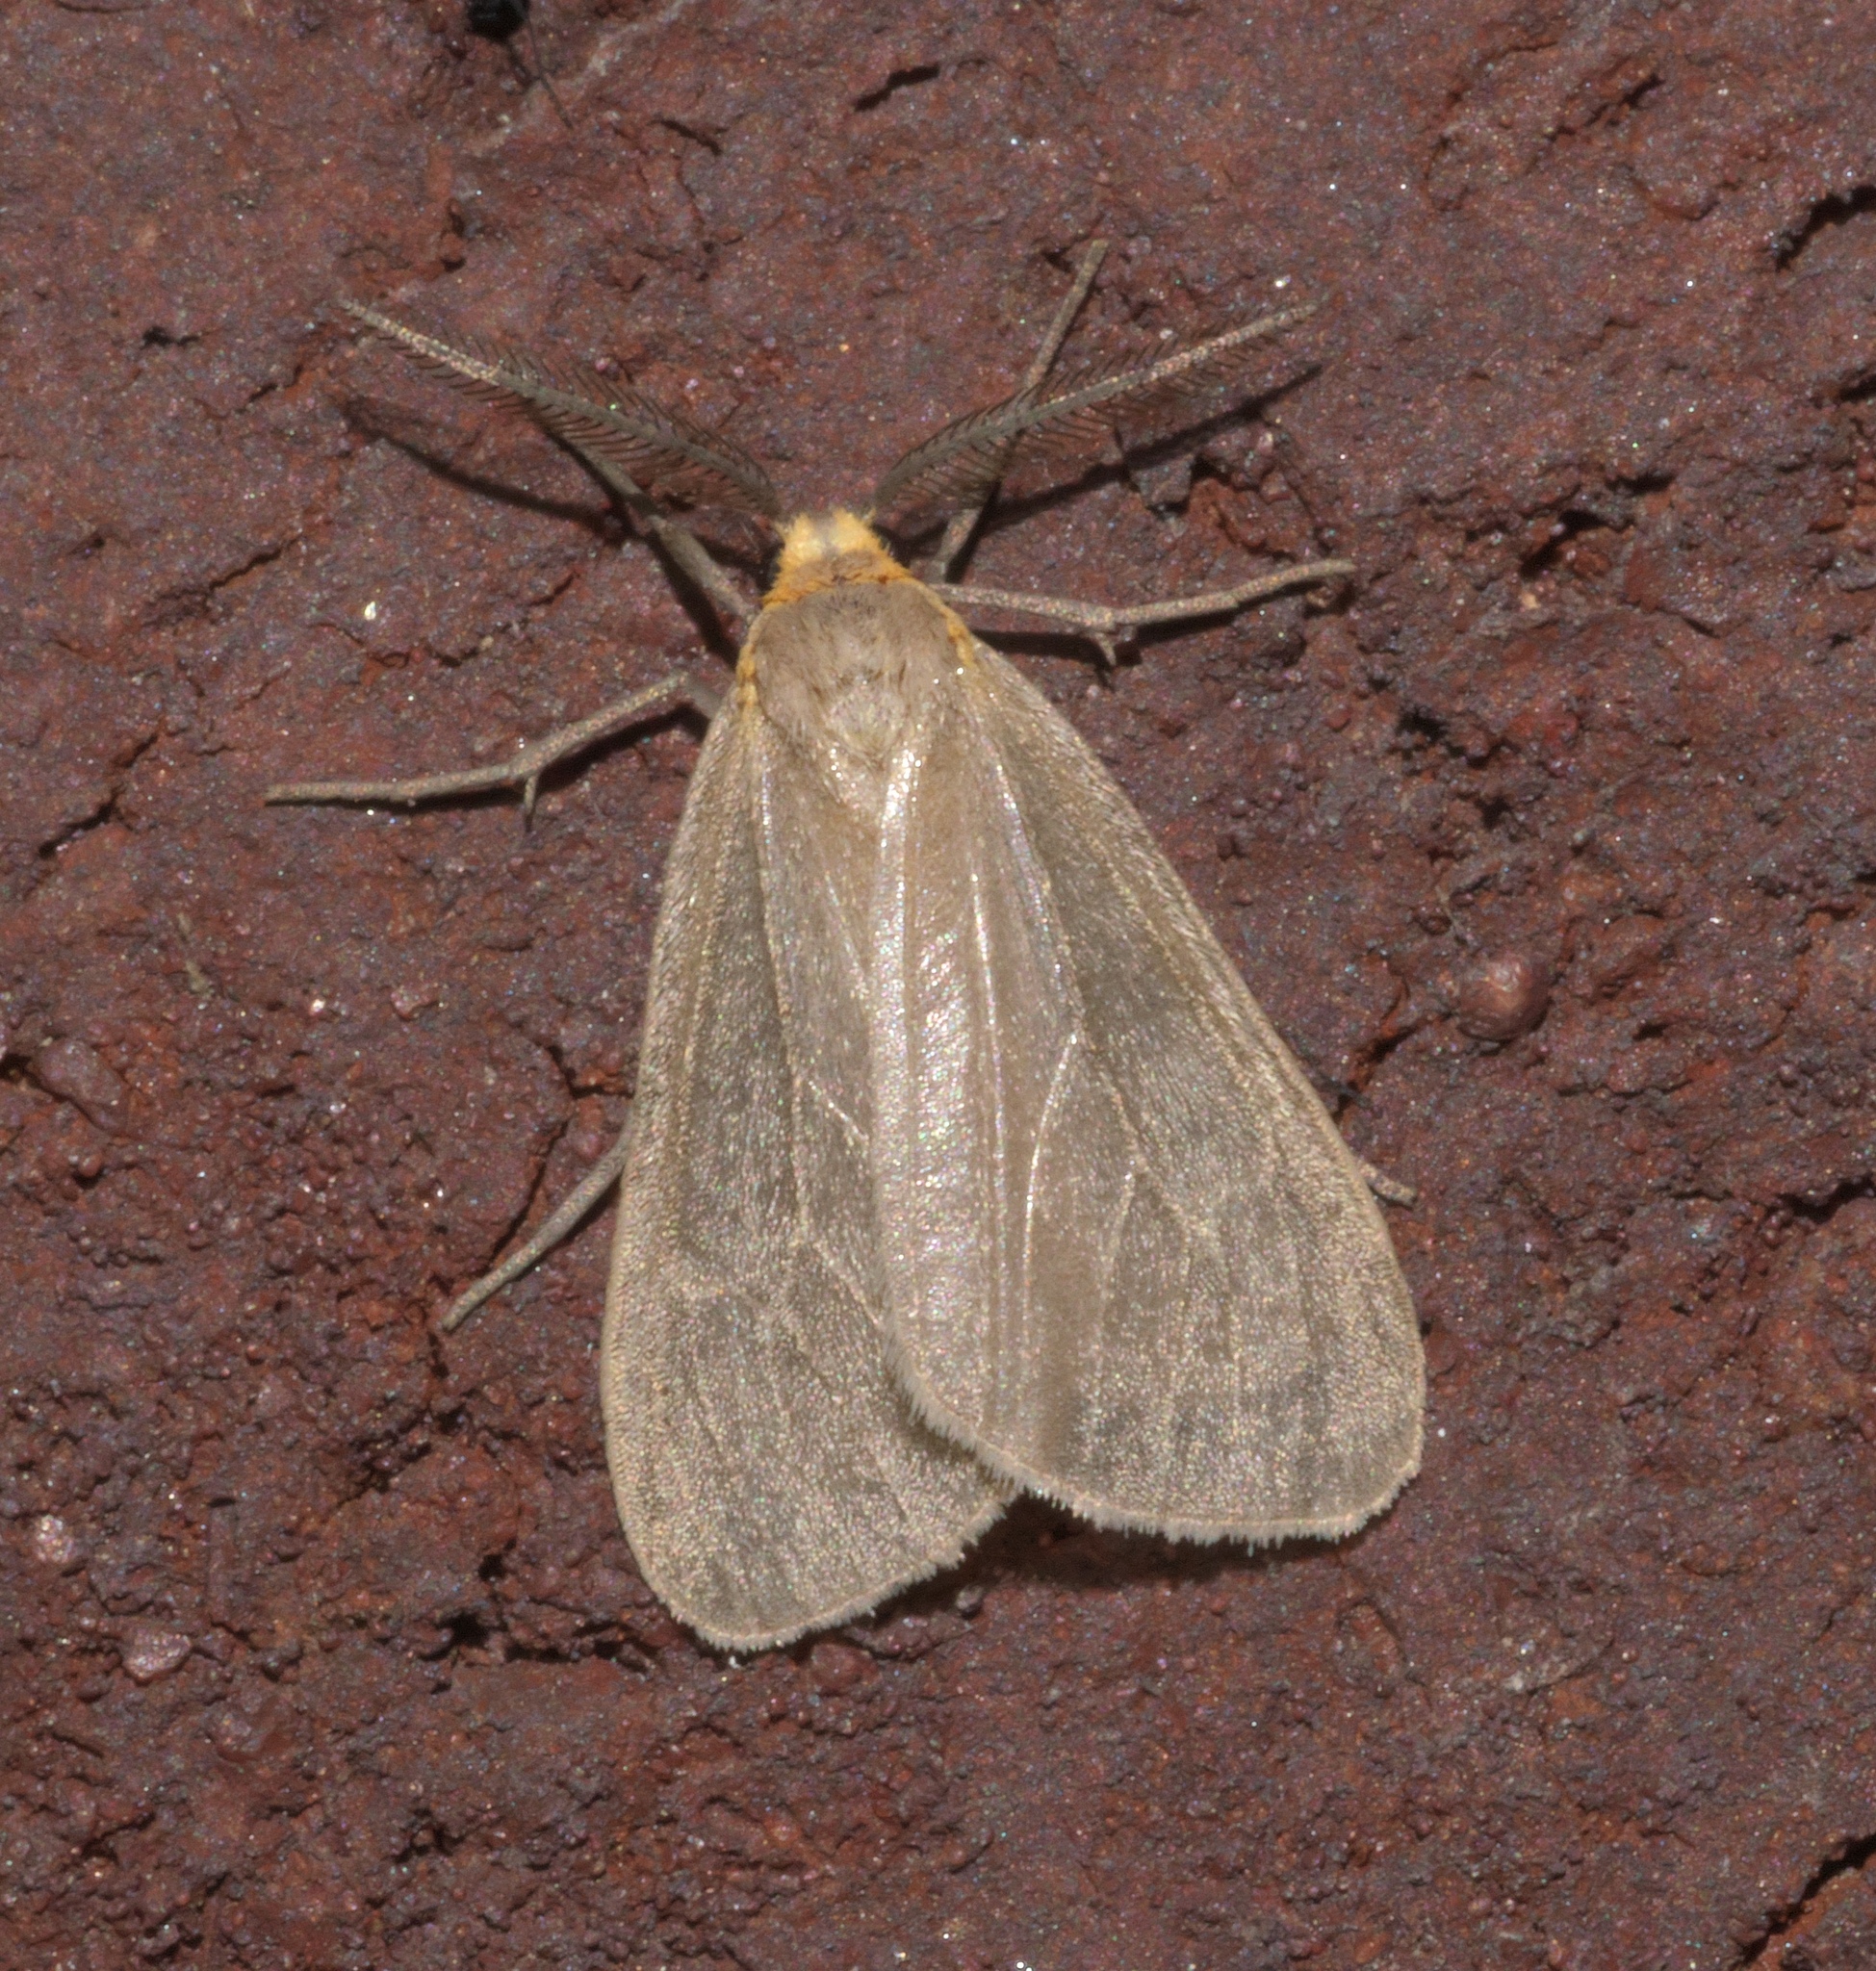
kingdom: Animalia
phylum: Arthropoda
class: Insecta
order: Lepidoptera
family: Erebidae
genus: Pagara
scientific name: Pagara simplex
